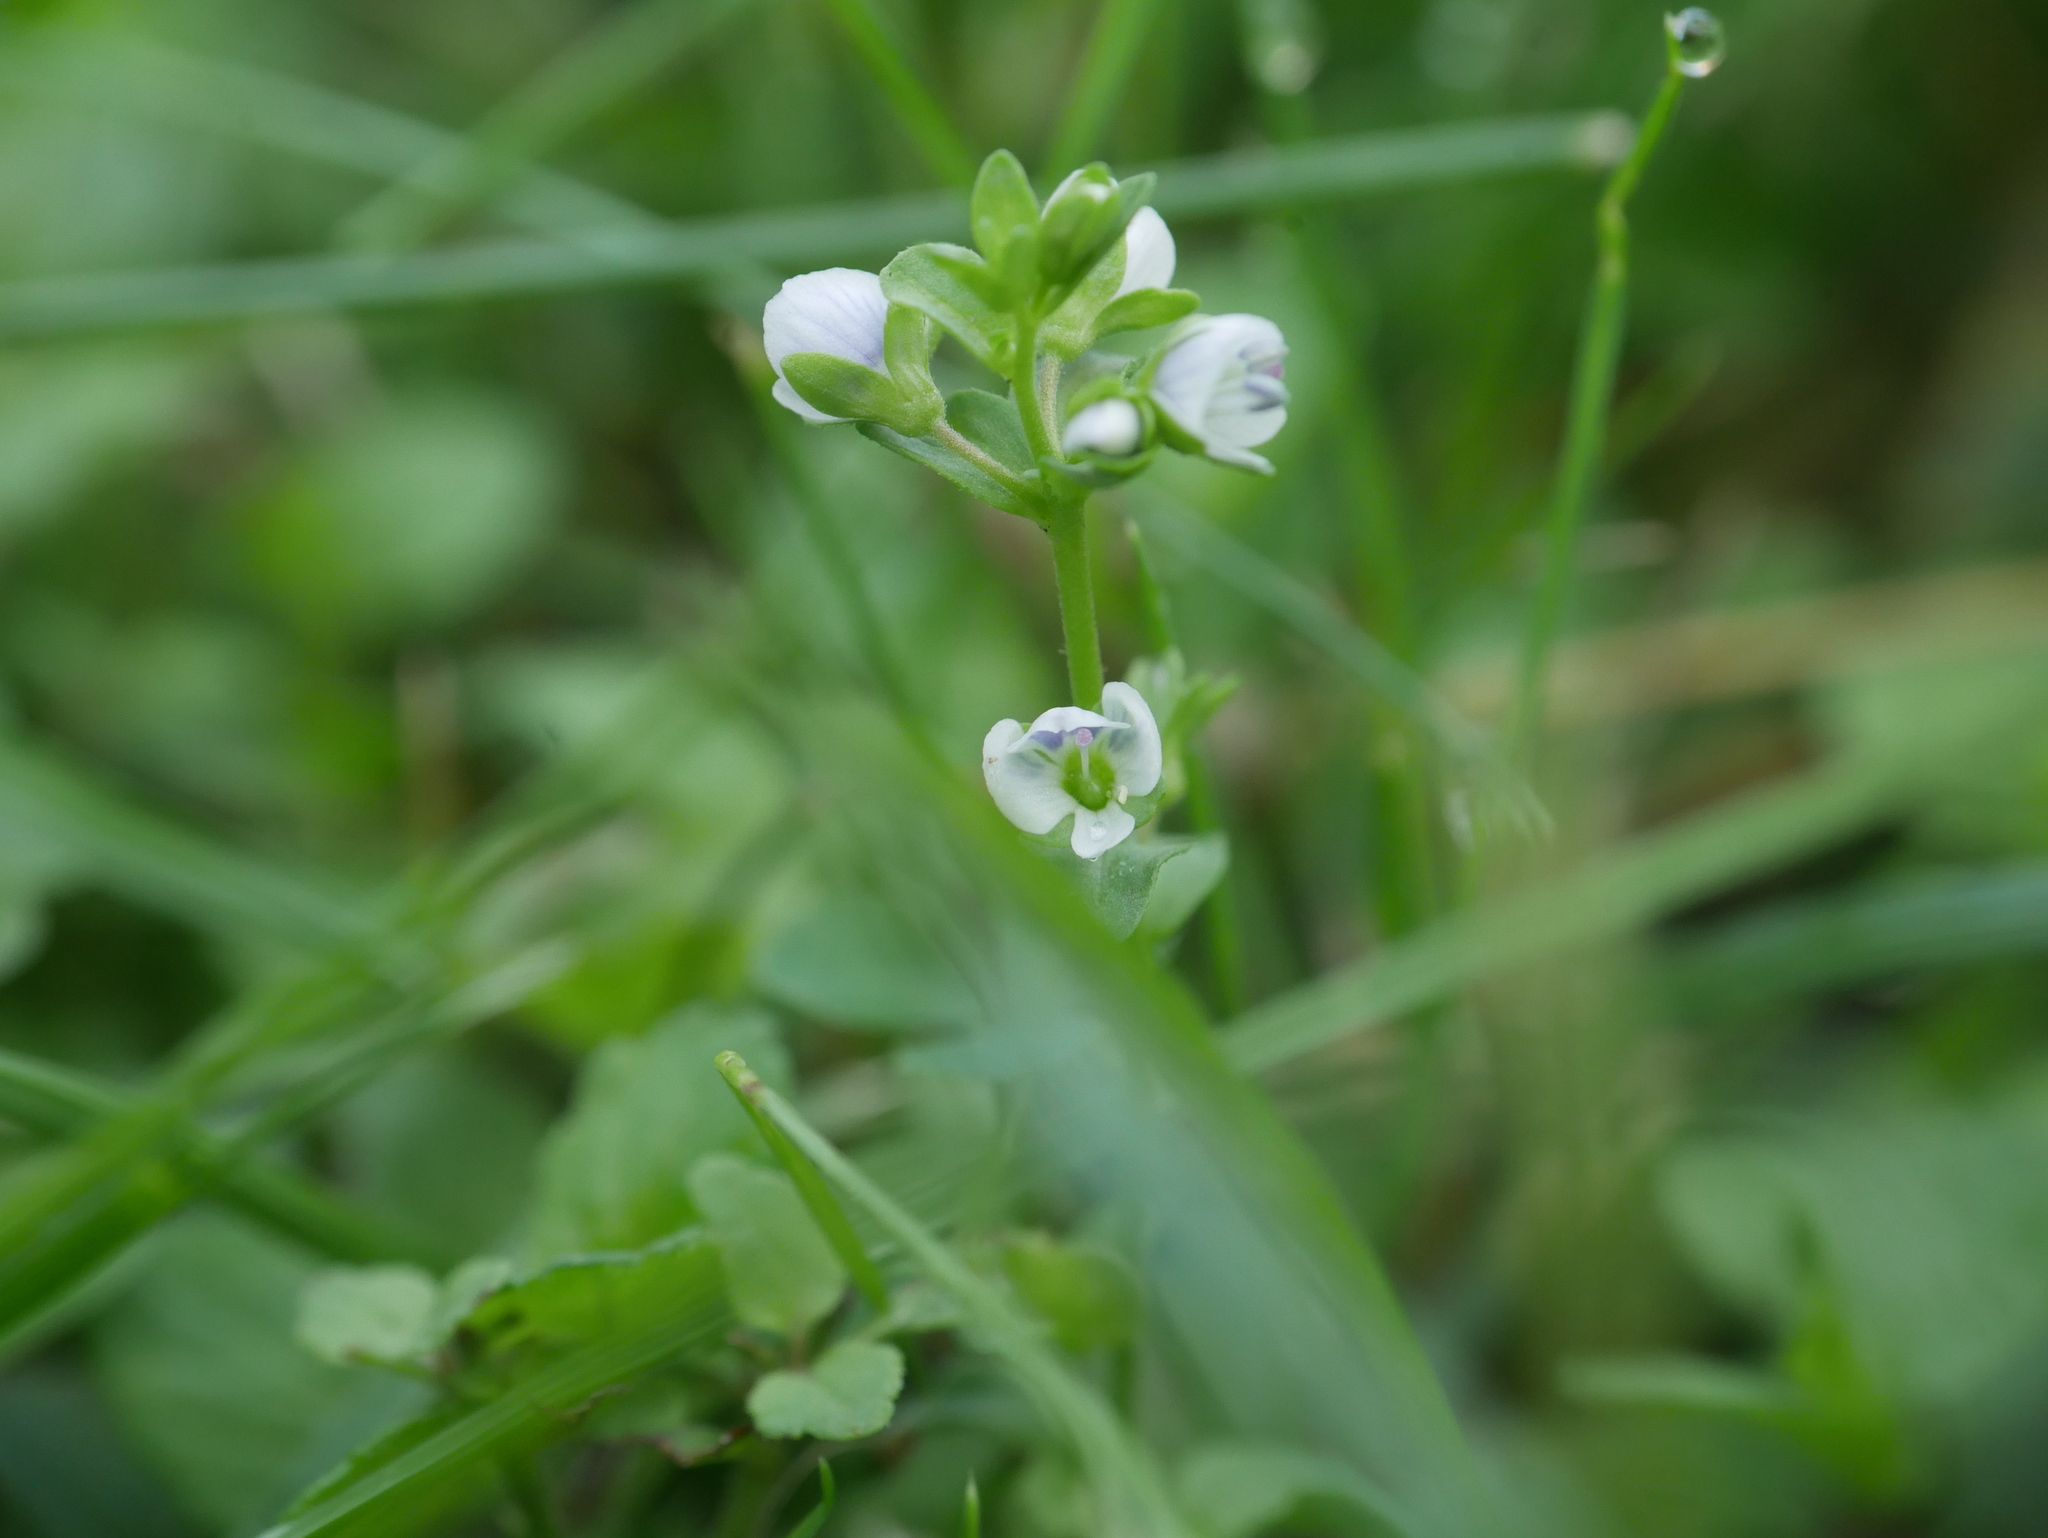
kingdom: Plantae
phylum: Tracheophyta
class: Magnoliopsida
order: Lamiales
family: Plantaginaceae
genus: Veronica
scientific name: Veronica serpyllifolia
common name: Thyme-leaved speedwell
